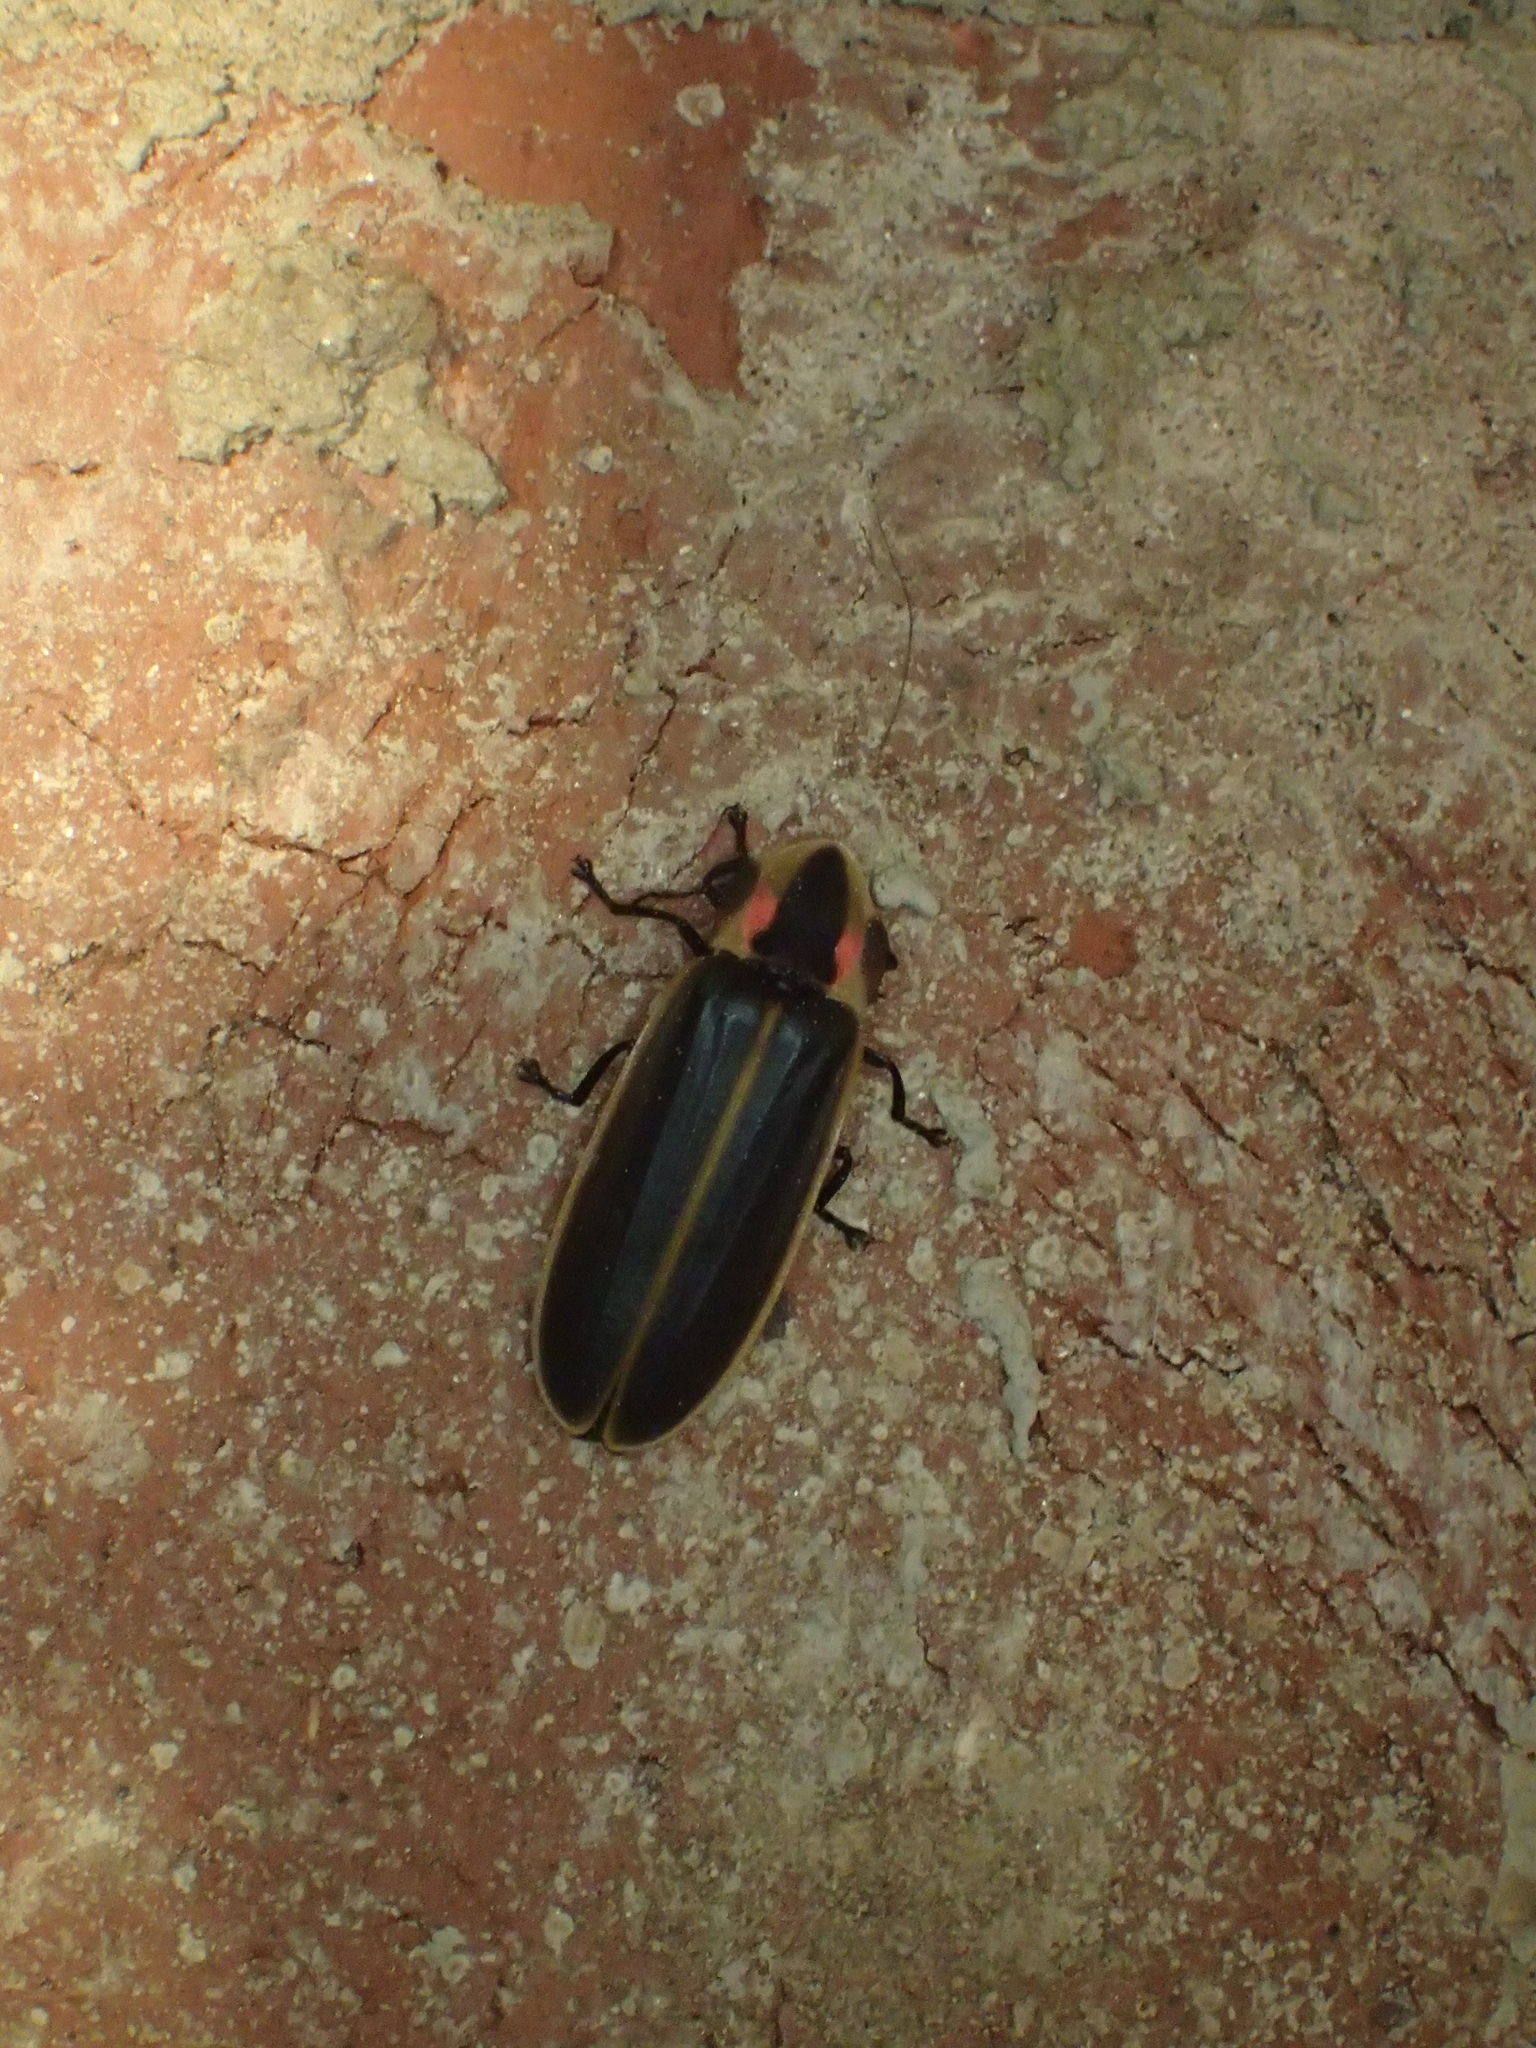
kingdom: Animalia
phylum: Arthropoda
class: Insecta
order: Coleoptera
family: Lampyridae
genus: Pyractomena
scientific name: Pyractomena borealis
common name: Northern firefly
